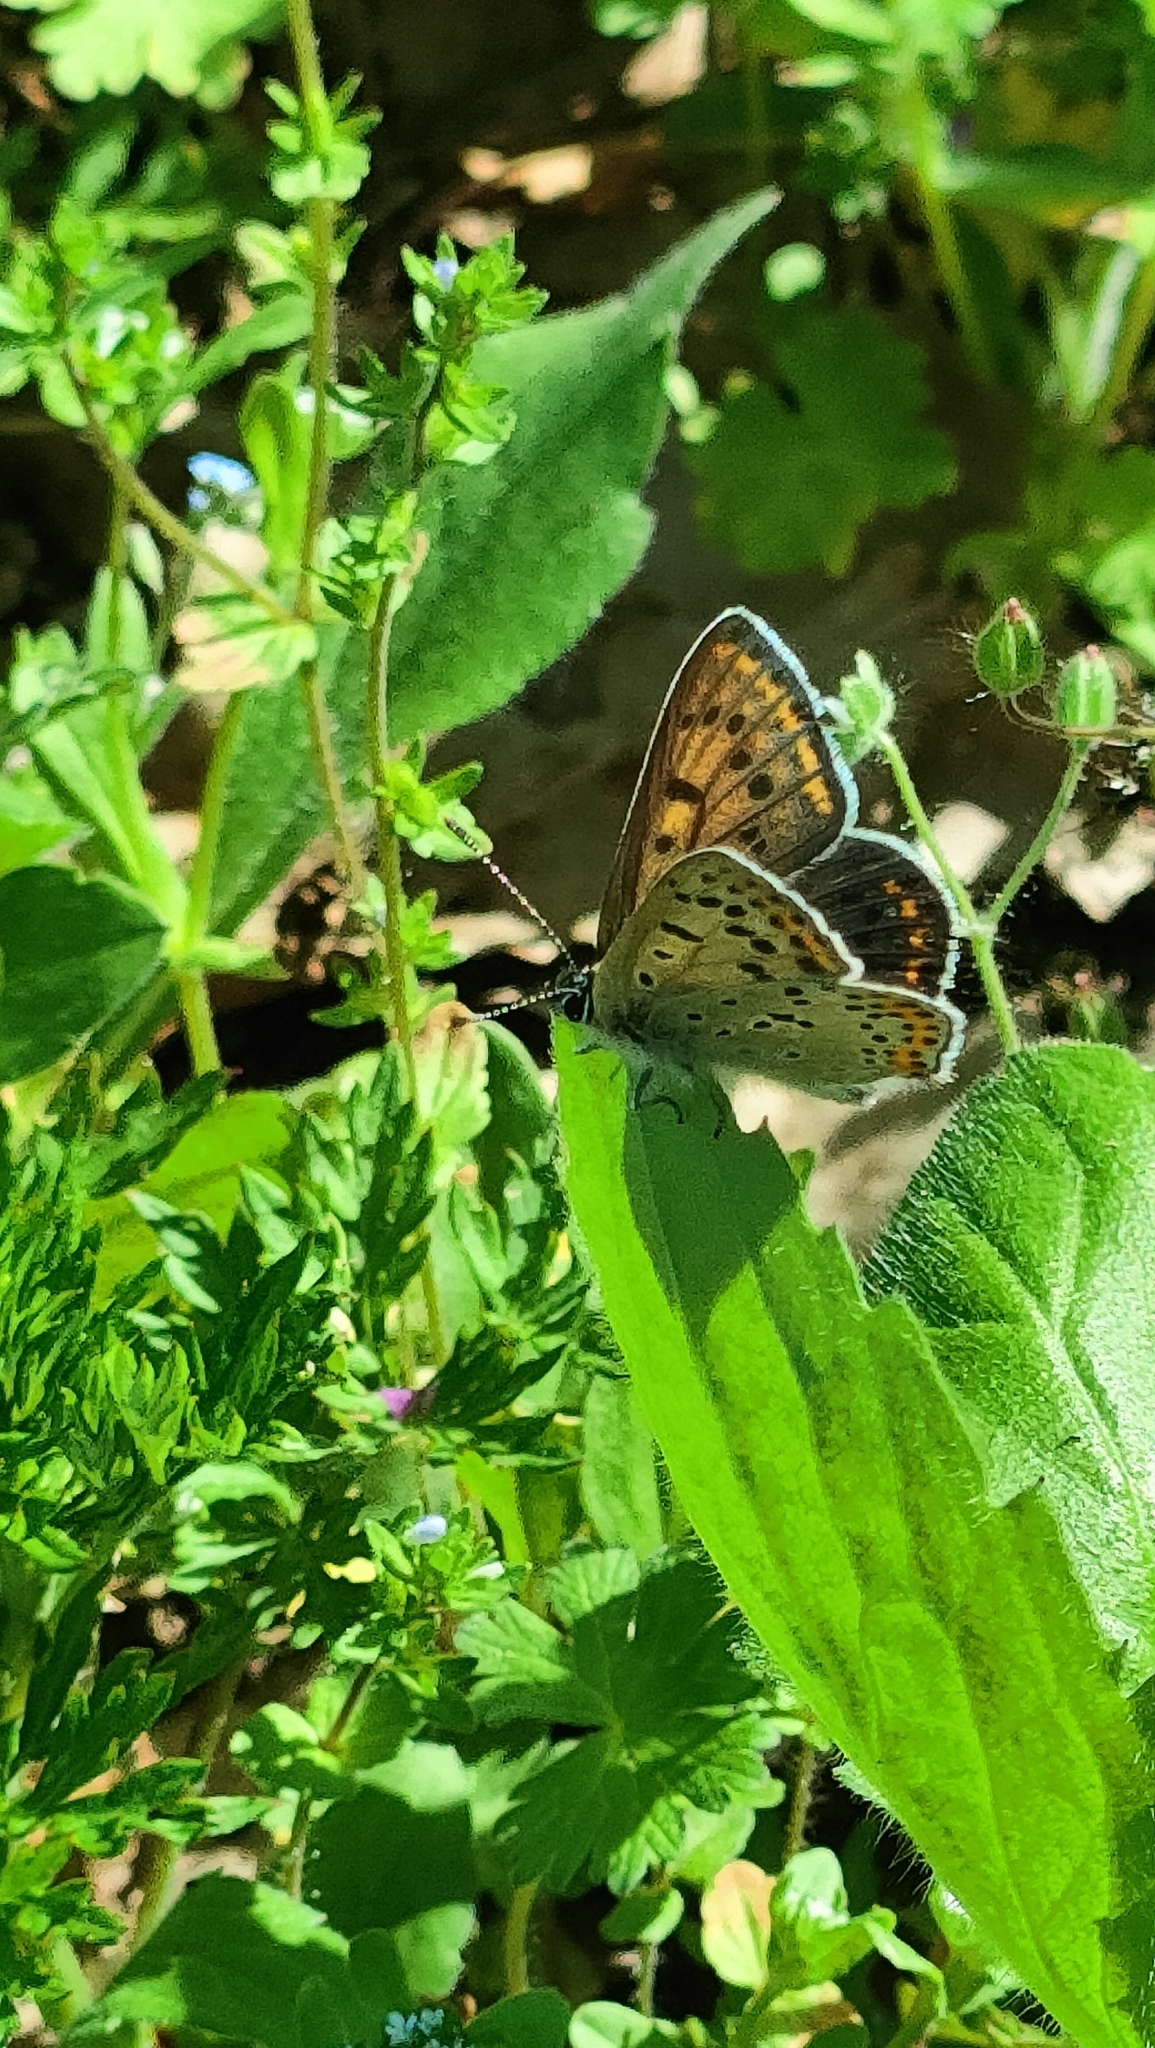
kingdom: Animalia
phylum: Arthropoda
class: Insecta
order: Lepidoptera
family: Lycaenidae
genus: Loweia
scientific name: Loweia tityrus
